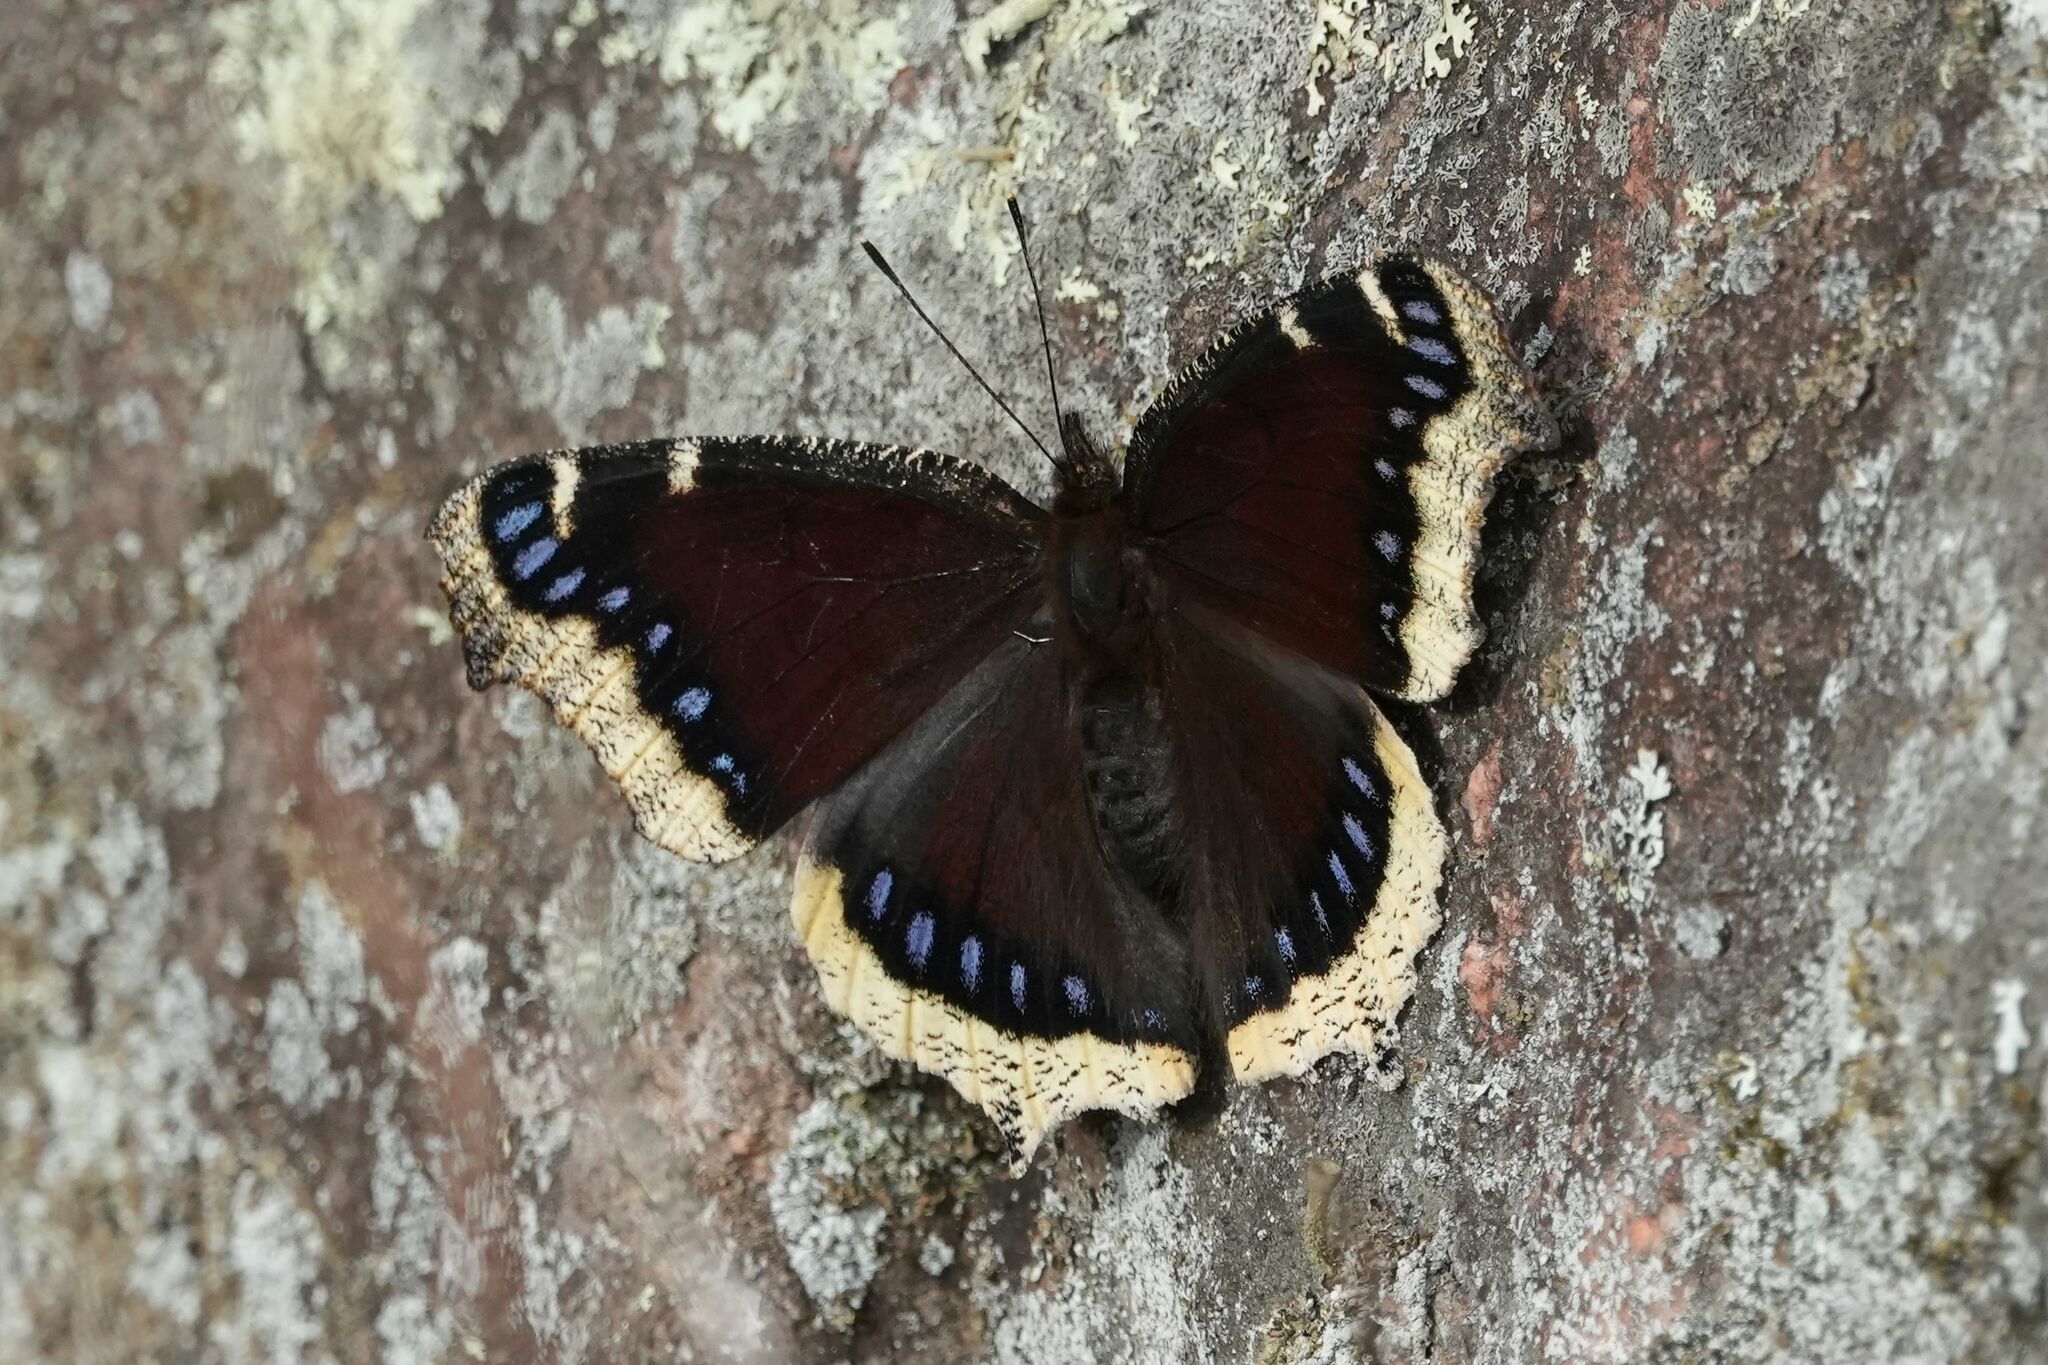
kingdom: Animalia
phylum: Arthropoda
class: Insecta
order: Lepidoptera
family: Nymphalidae
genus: Nymphalis
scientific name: Nymphalis antiopa
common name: Camberwell beauty
